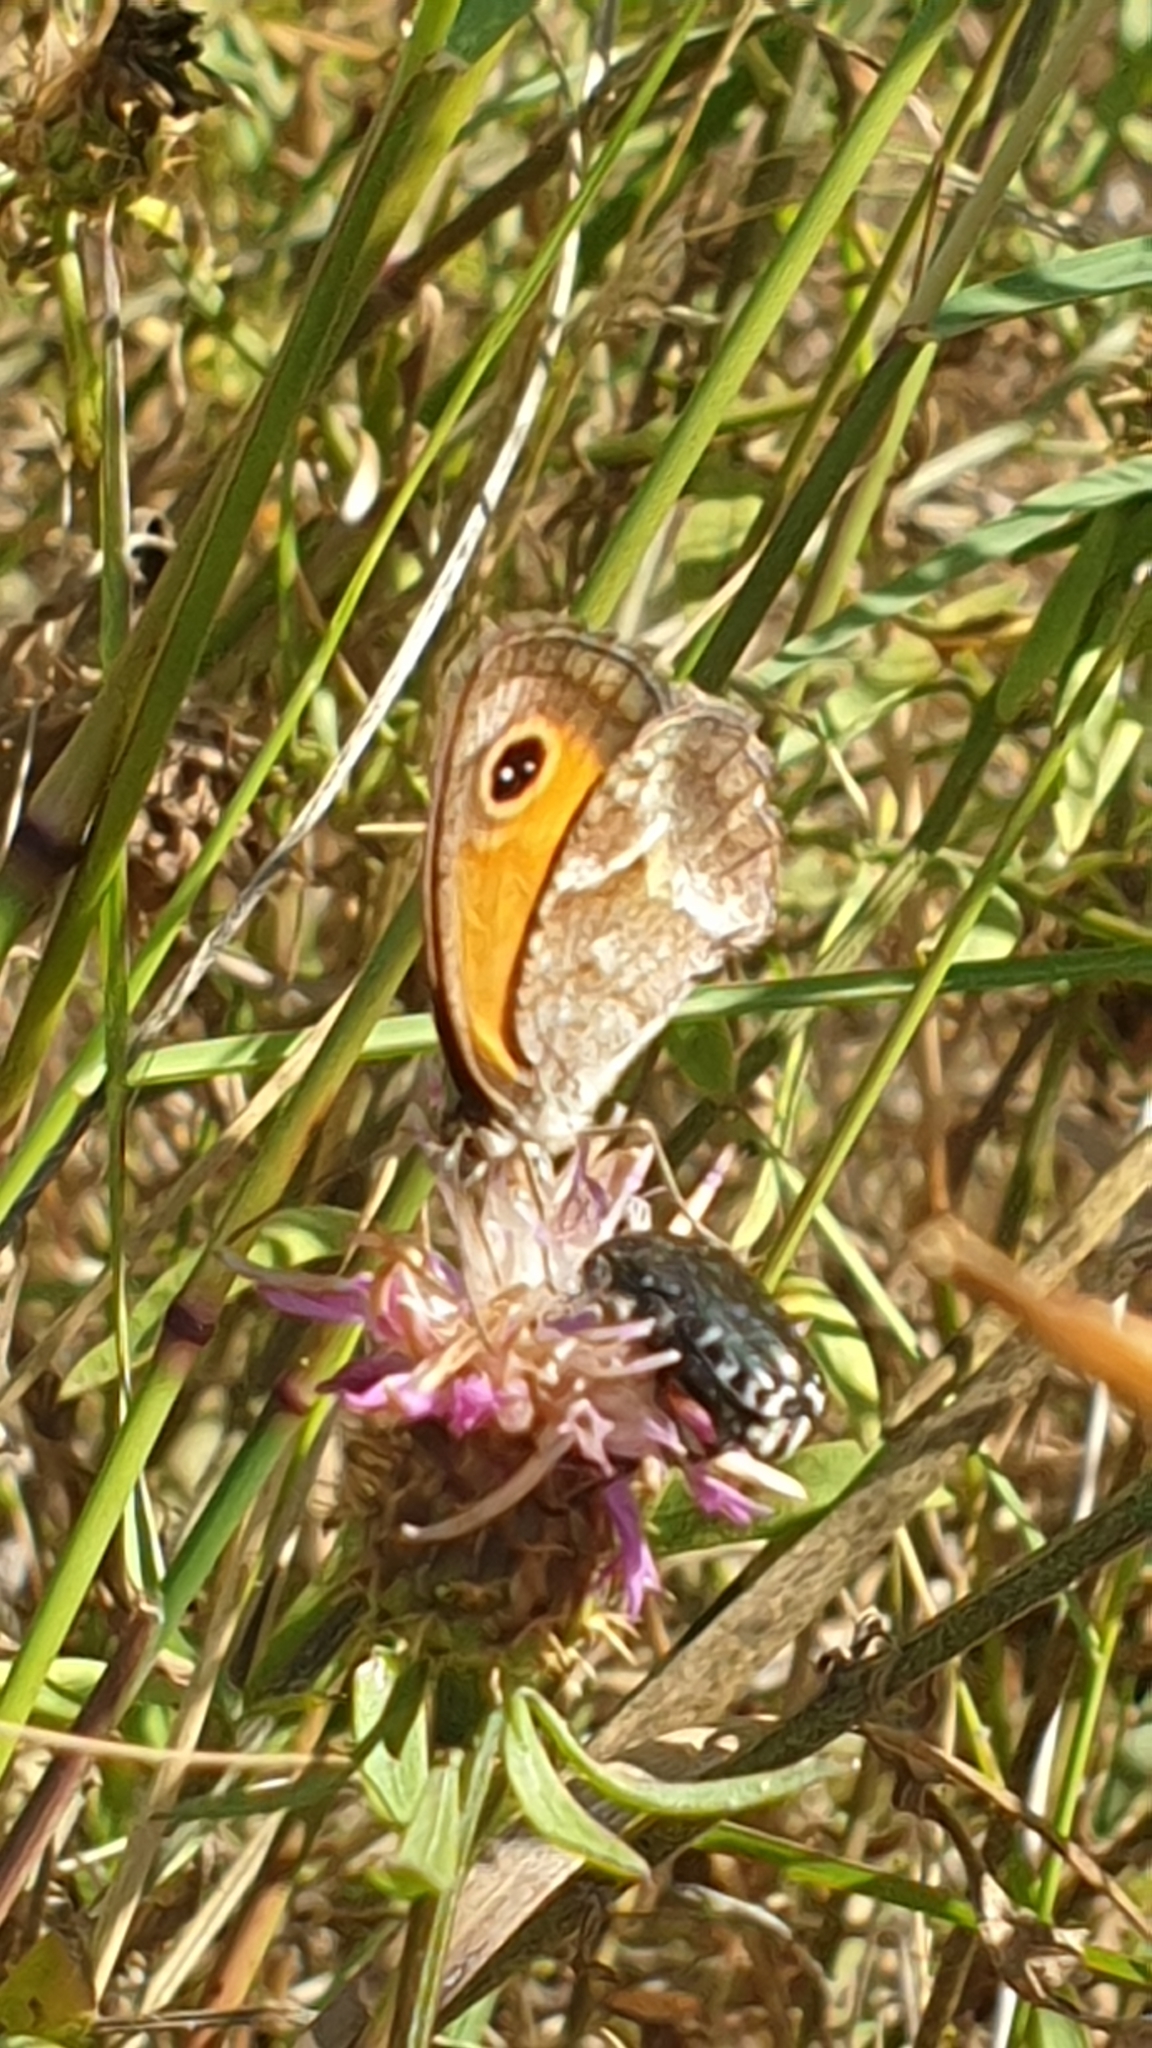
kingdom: Animalia
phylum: Arthropoda
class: Insecta
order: Lepidoptera
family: Nymphalidae
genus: Pyronia
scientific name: Pyronia cecilia
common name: Southern gatekeeper
